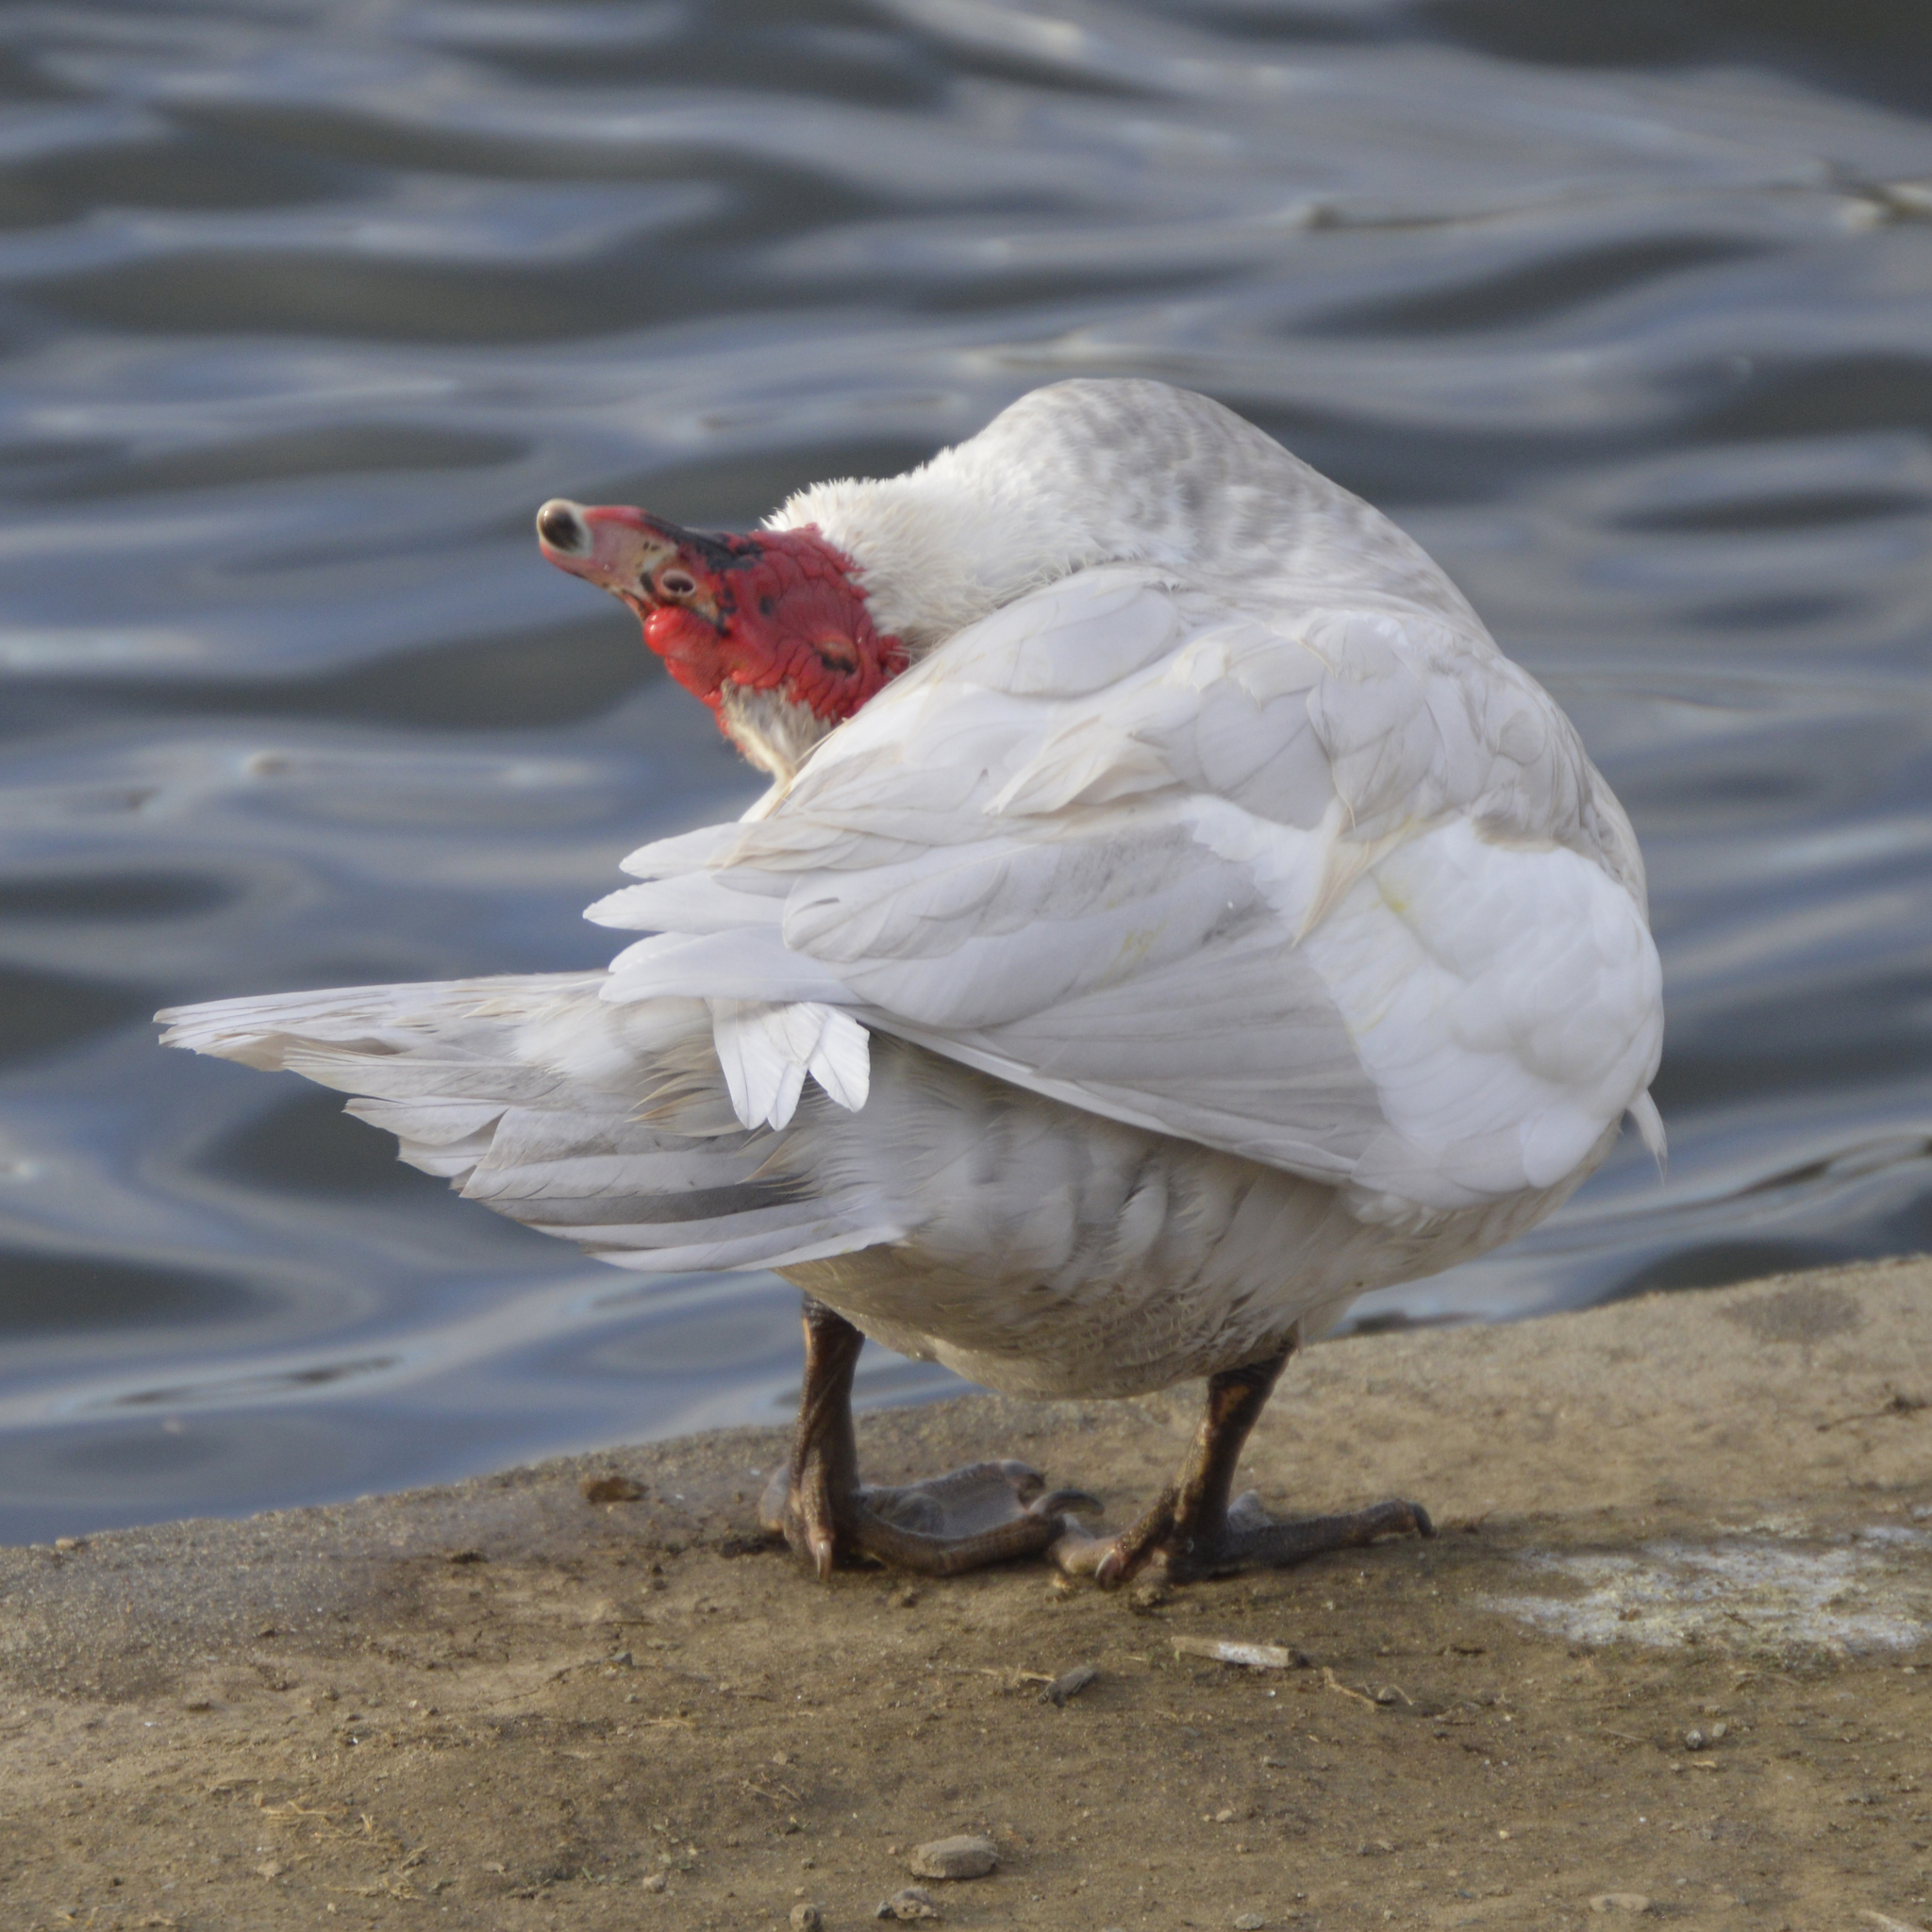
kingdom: Animalia
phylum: Chordata
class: Aves
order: Anseriformes
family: Anatidae
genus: Cairina
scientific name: Cairina moschata
